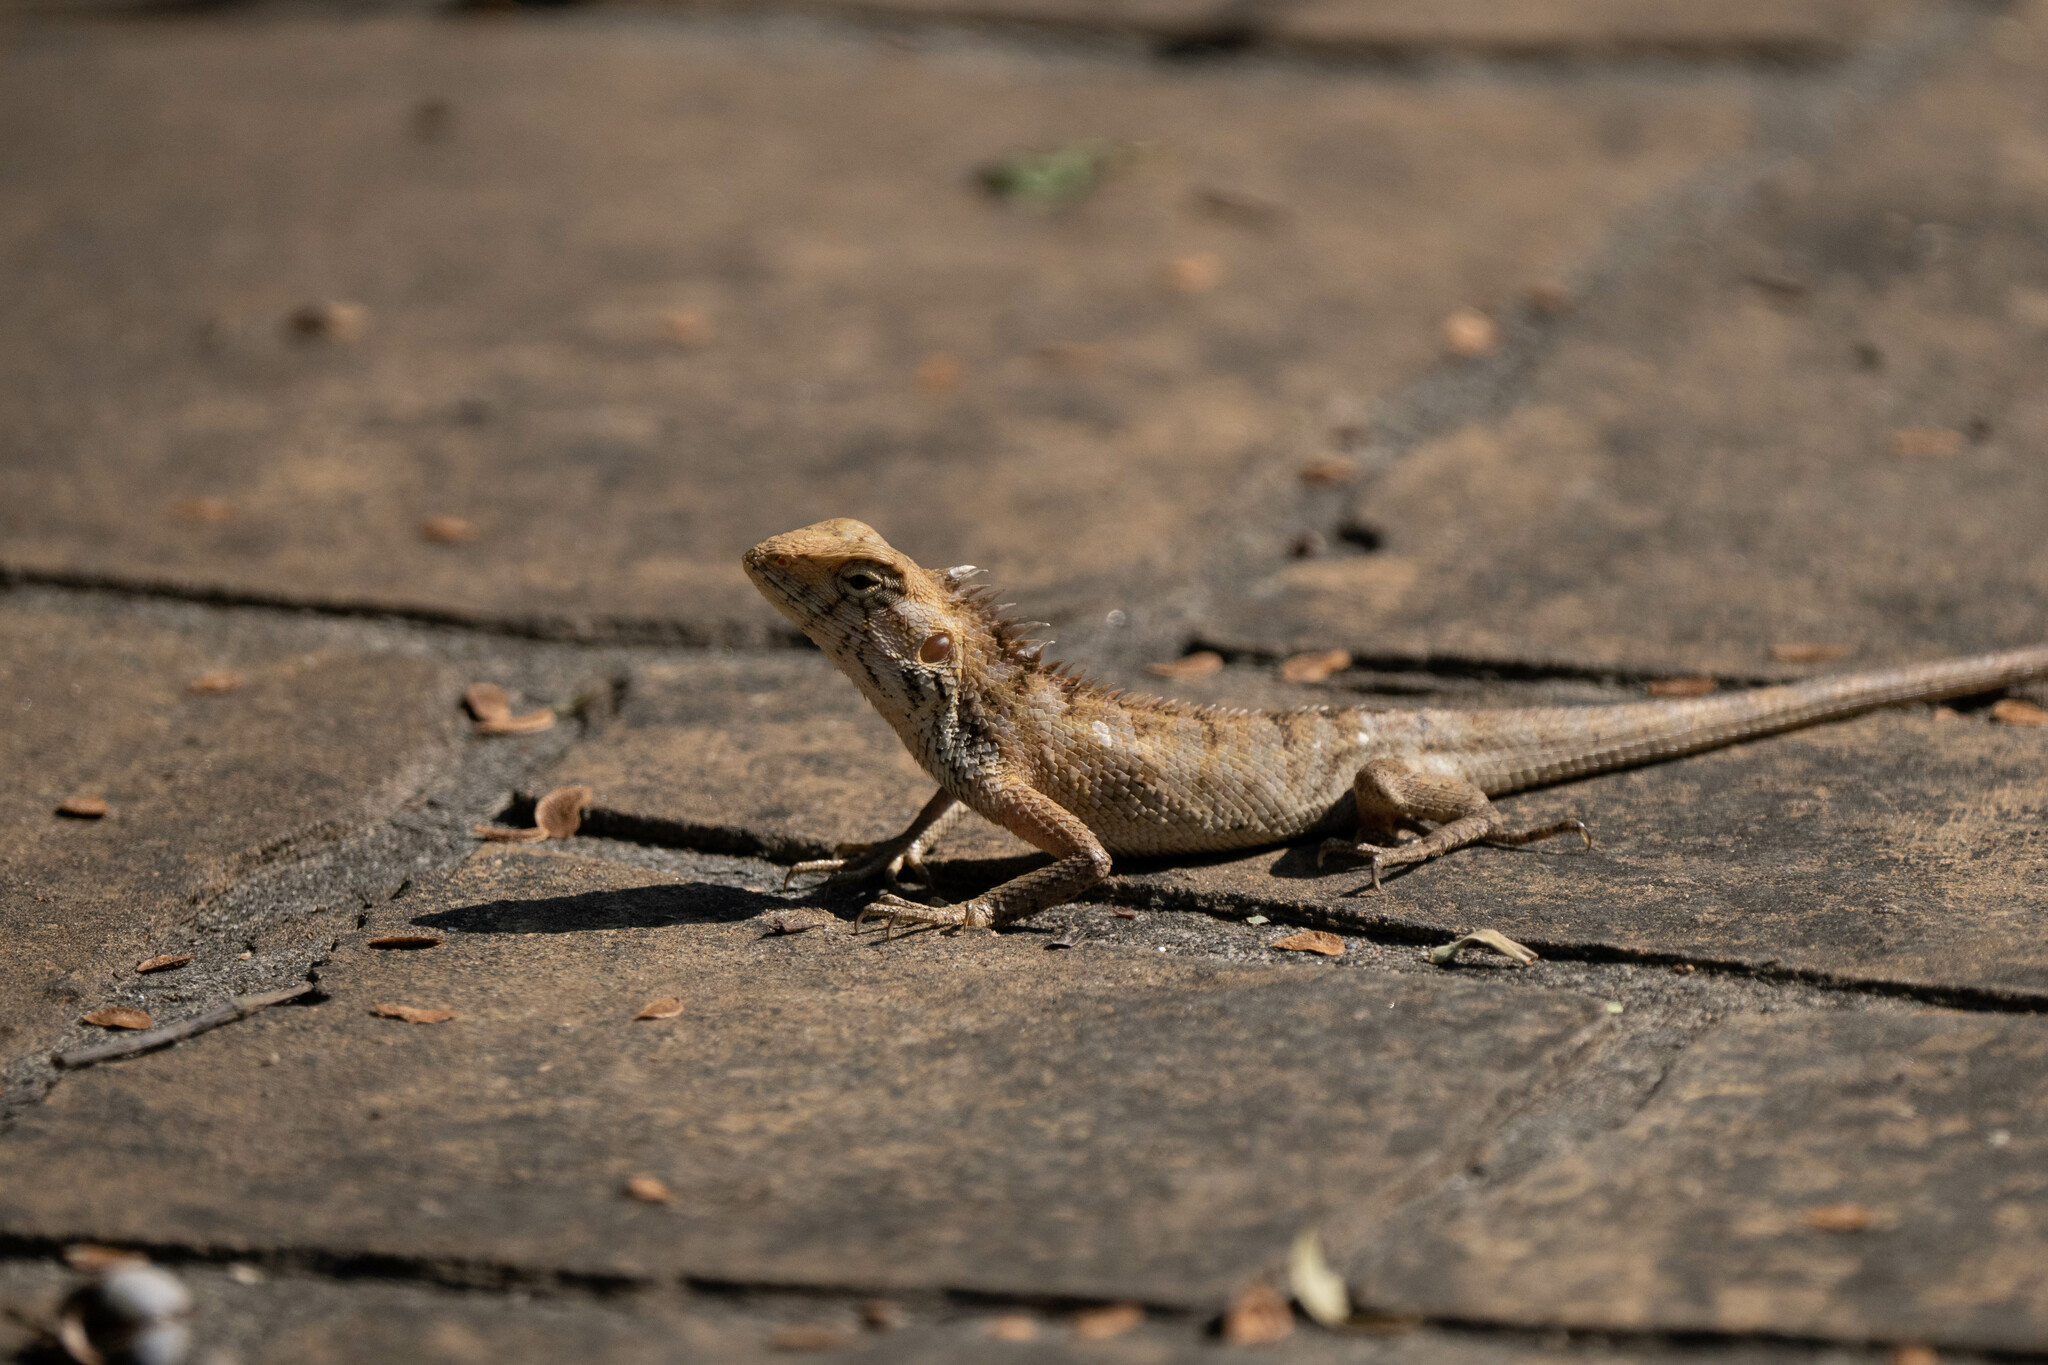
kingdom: Animalia
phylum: Chordata
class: Squamata
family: Agamidae
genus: Calotes
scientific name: Calotes versicolor
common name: Oriental garden lizard
